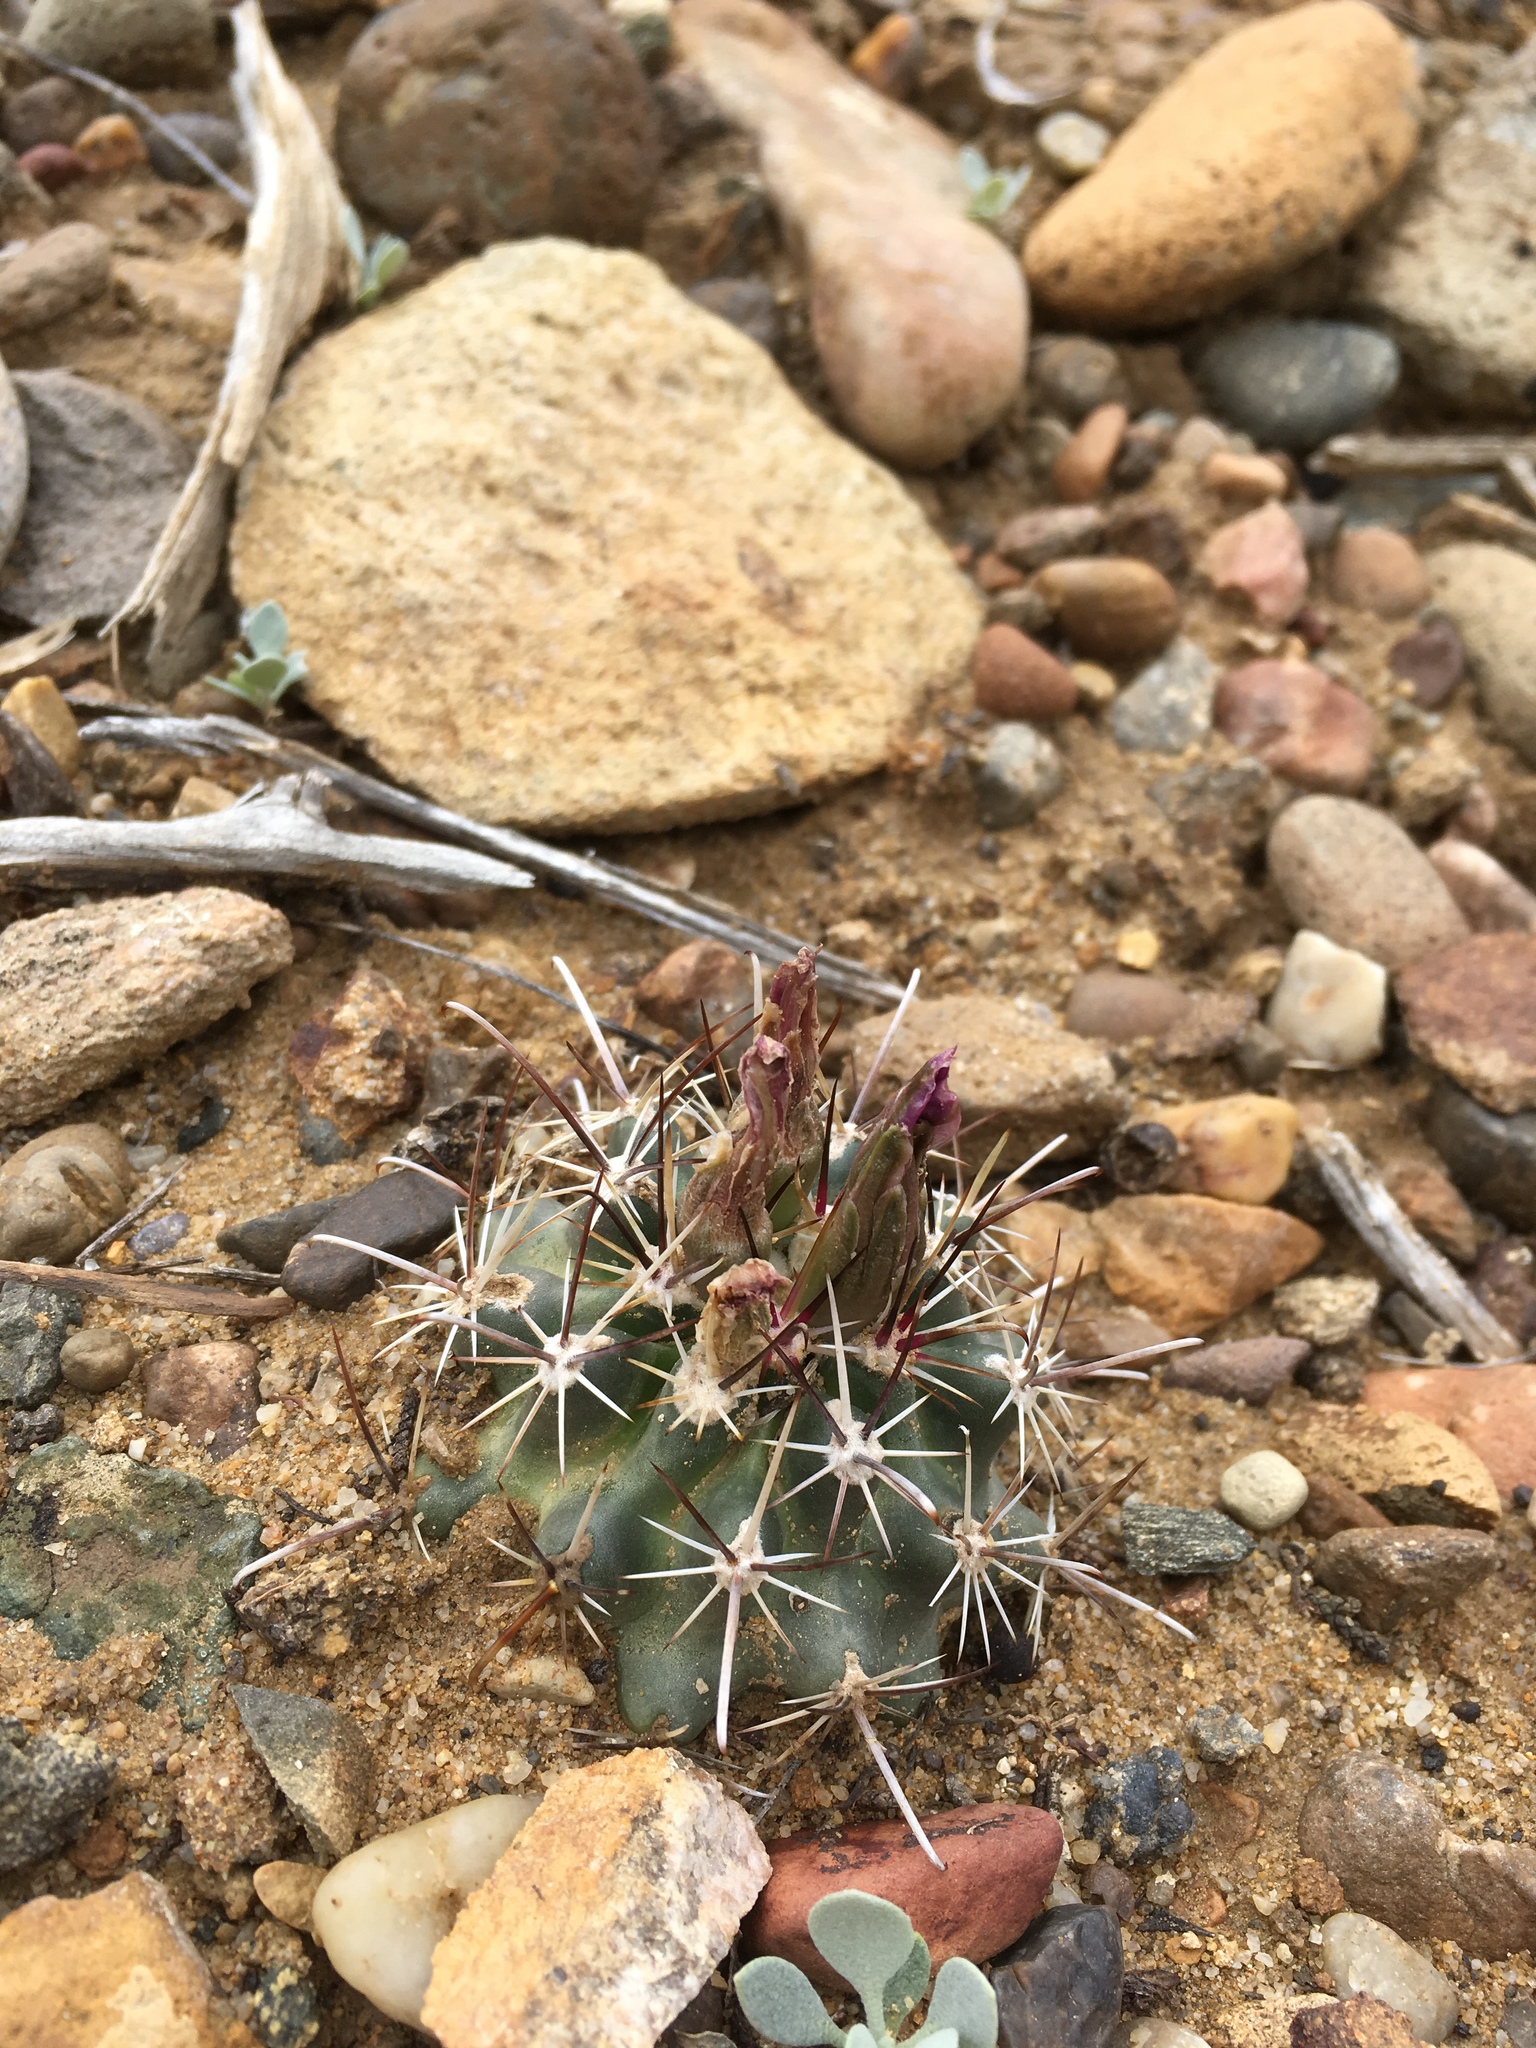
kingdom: Plantae
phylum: Tracheophyta
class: Magnoliopsida
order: Caryophyllales
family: Cactaceae
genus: Sclerocactus
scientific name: Sclerocactus parviflorus
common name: Small-flower fishhook cactus
